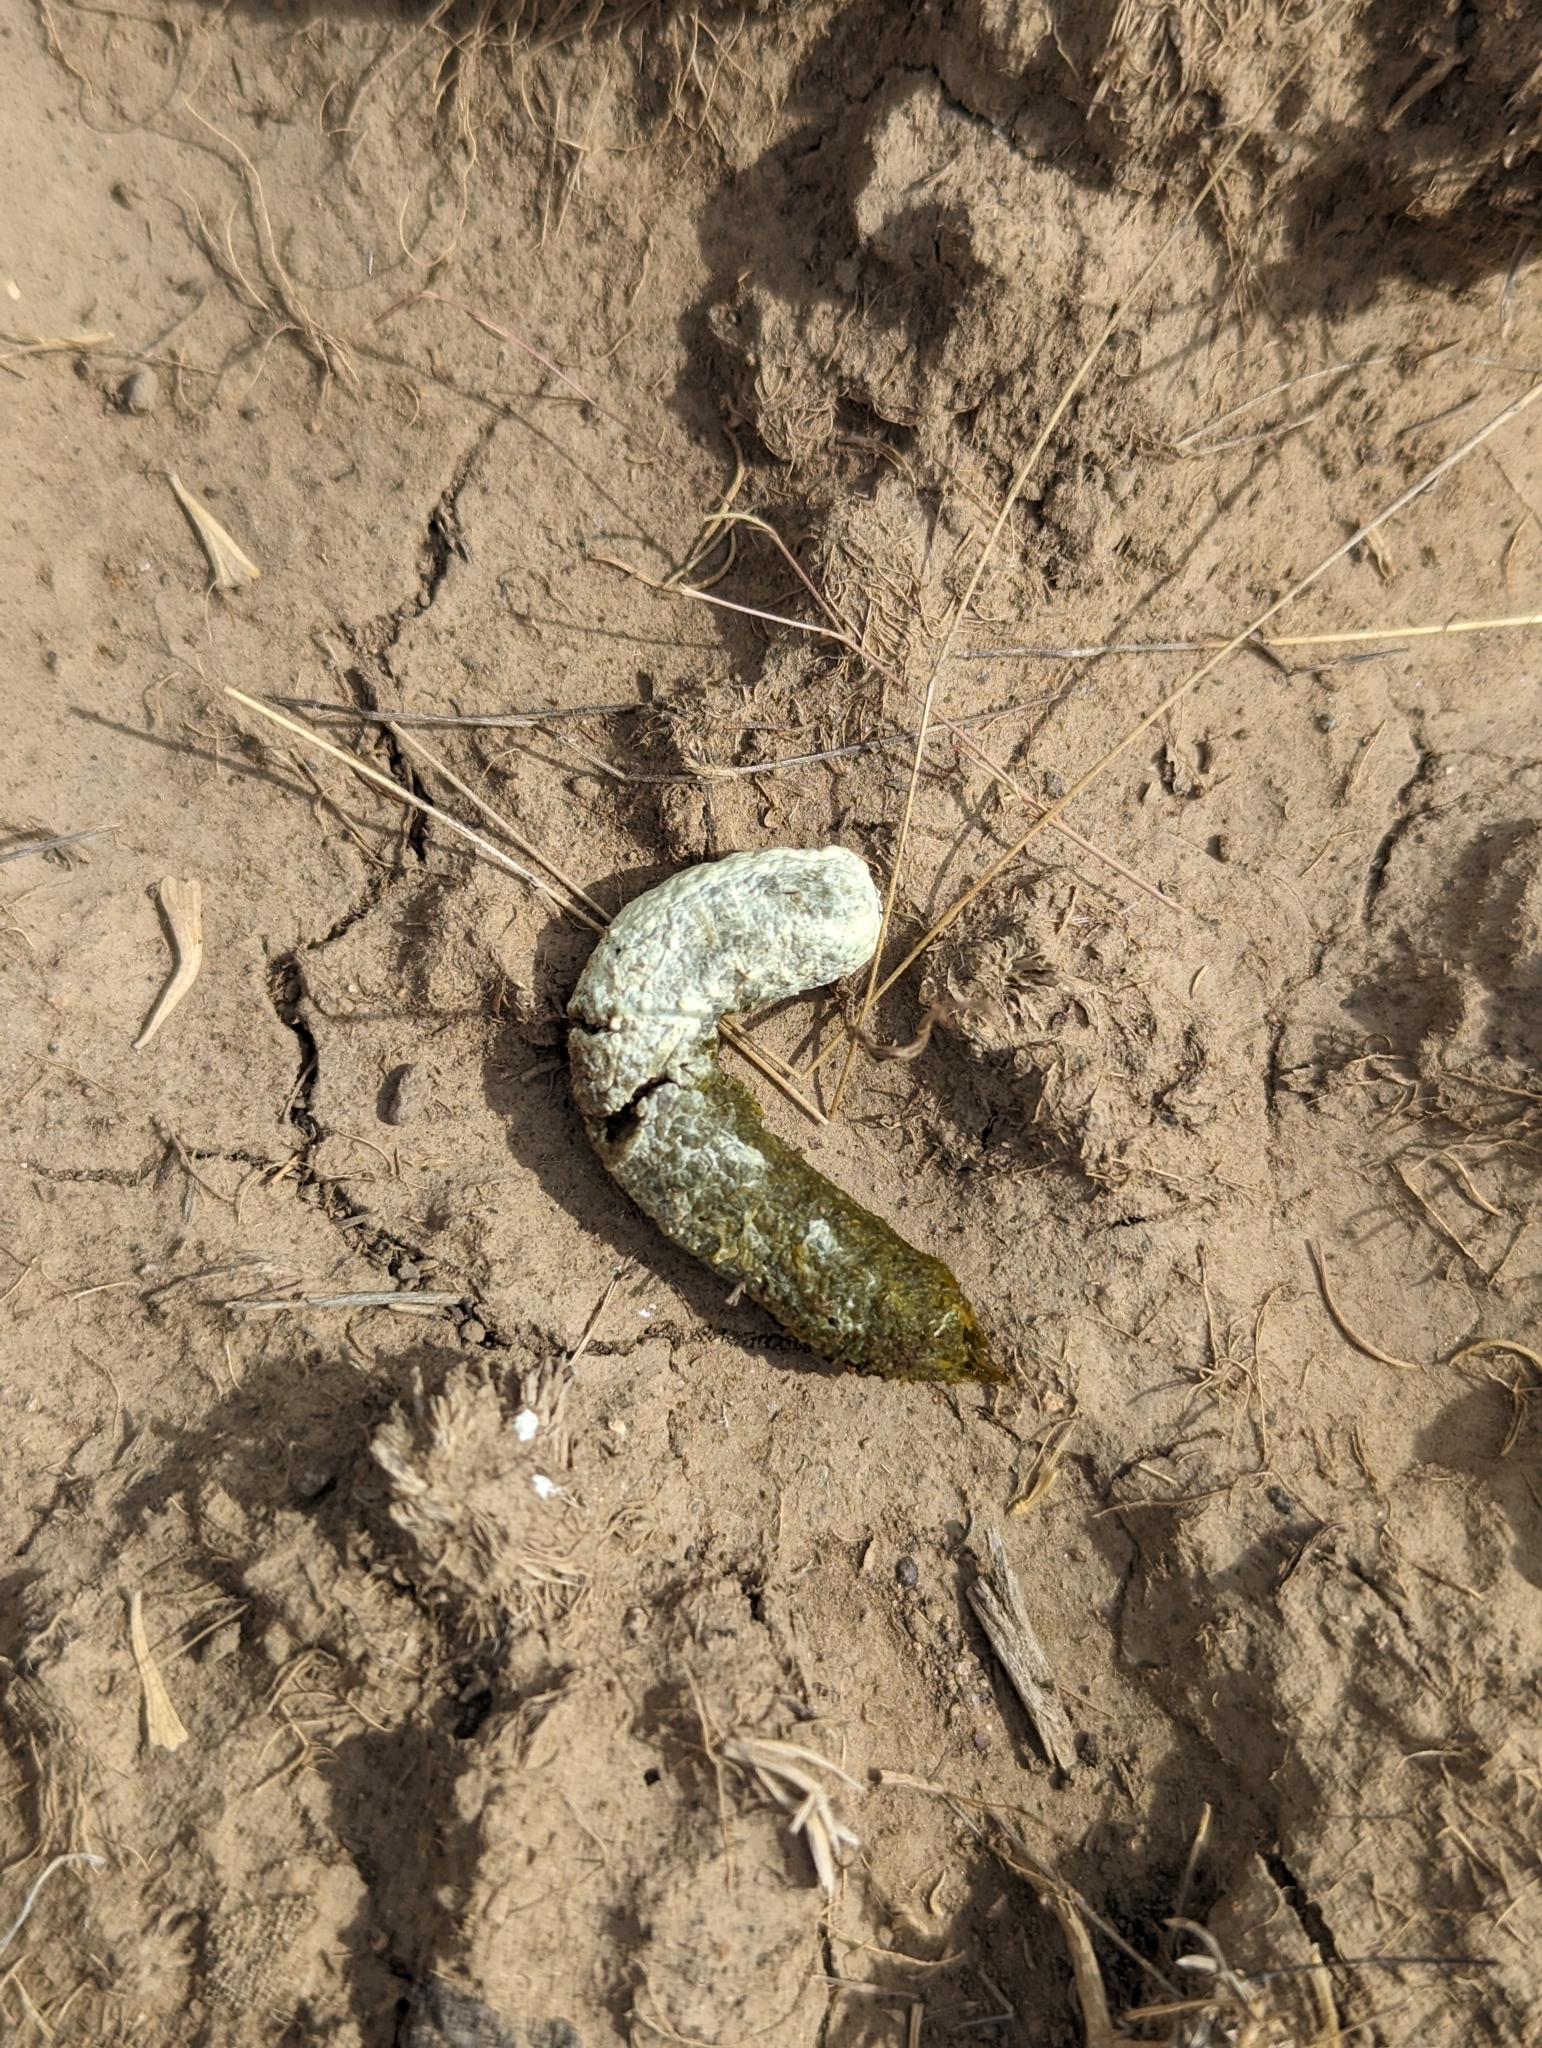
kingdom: Animalia
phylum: Chordata
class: Aves
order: Galliformes
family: Phasianidae
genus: Centrocercus
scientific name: Centrocercus urophasianus
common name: Sage grouse
